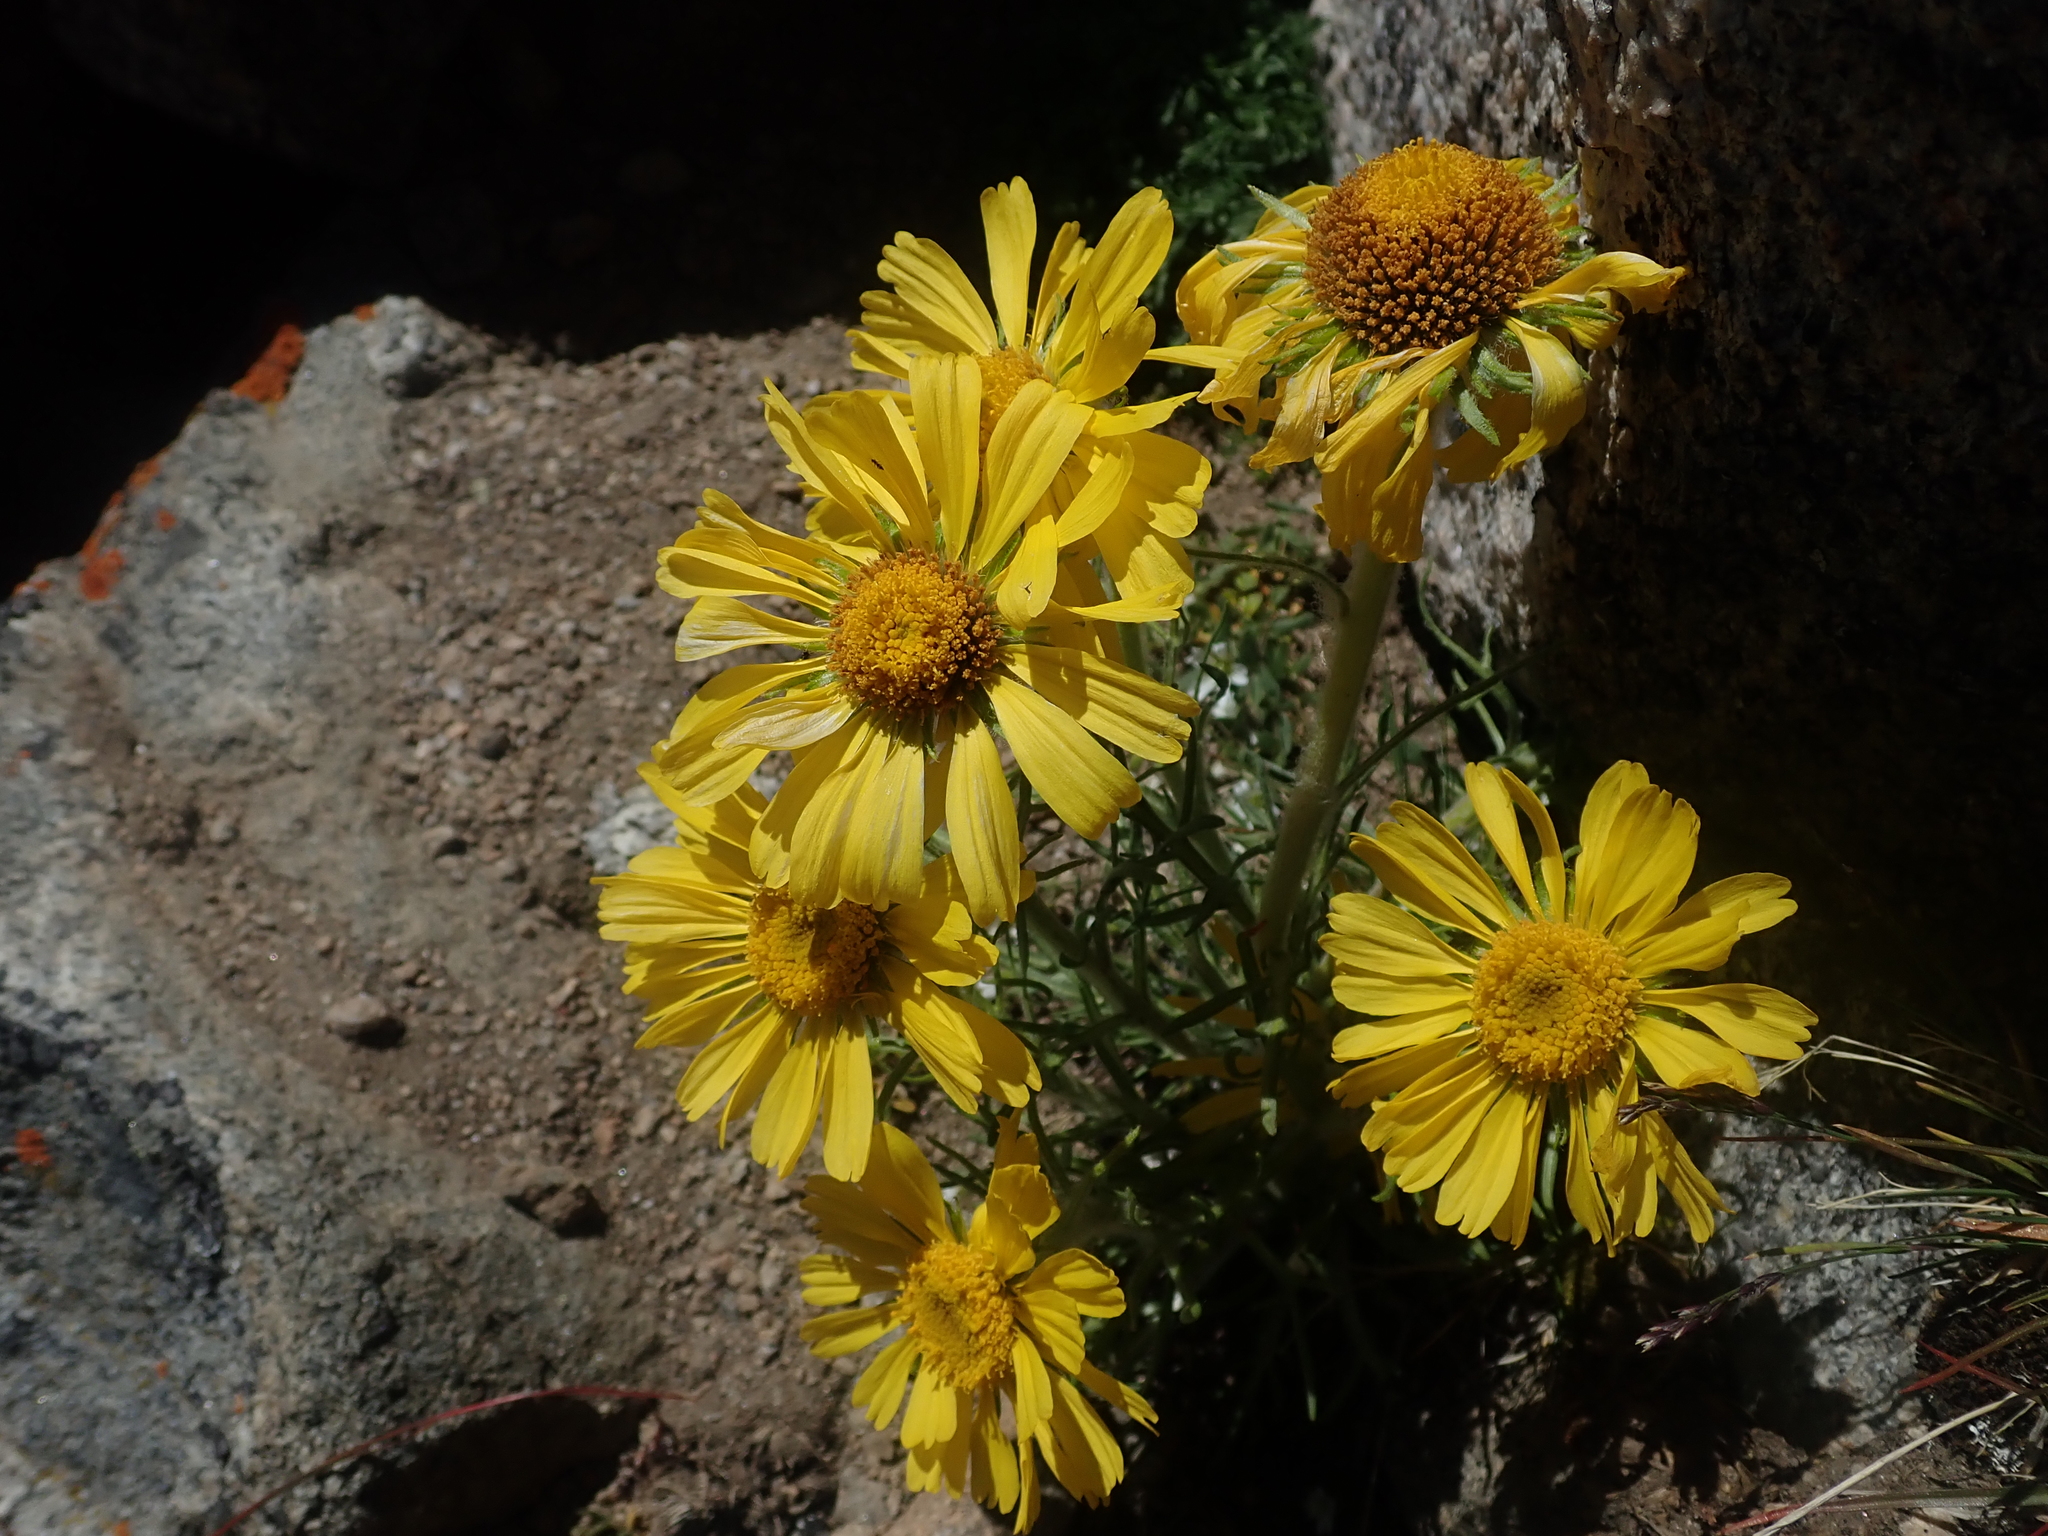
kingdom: Plantae
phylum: Tracheophyta
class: Magnoliopsida
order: Asterales
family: Asteraceae
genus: Hymenoxys
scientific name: Hymenoxys grandiflora
